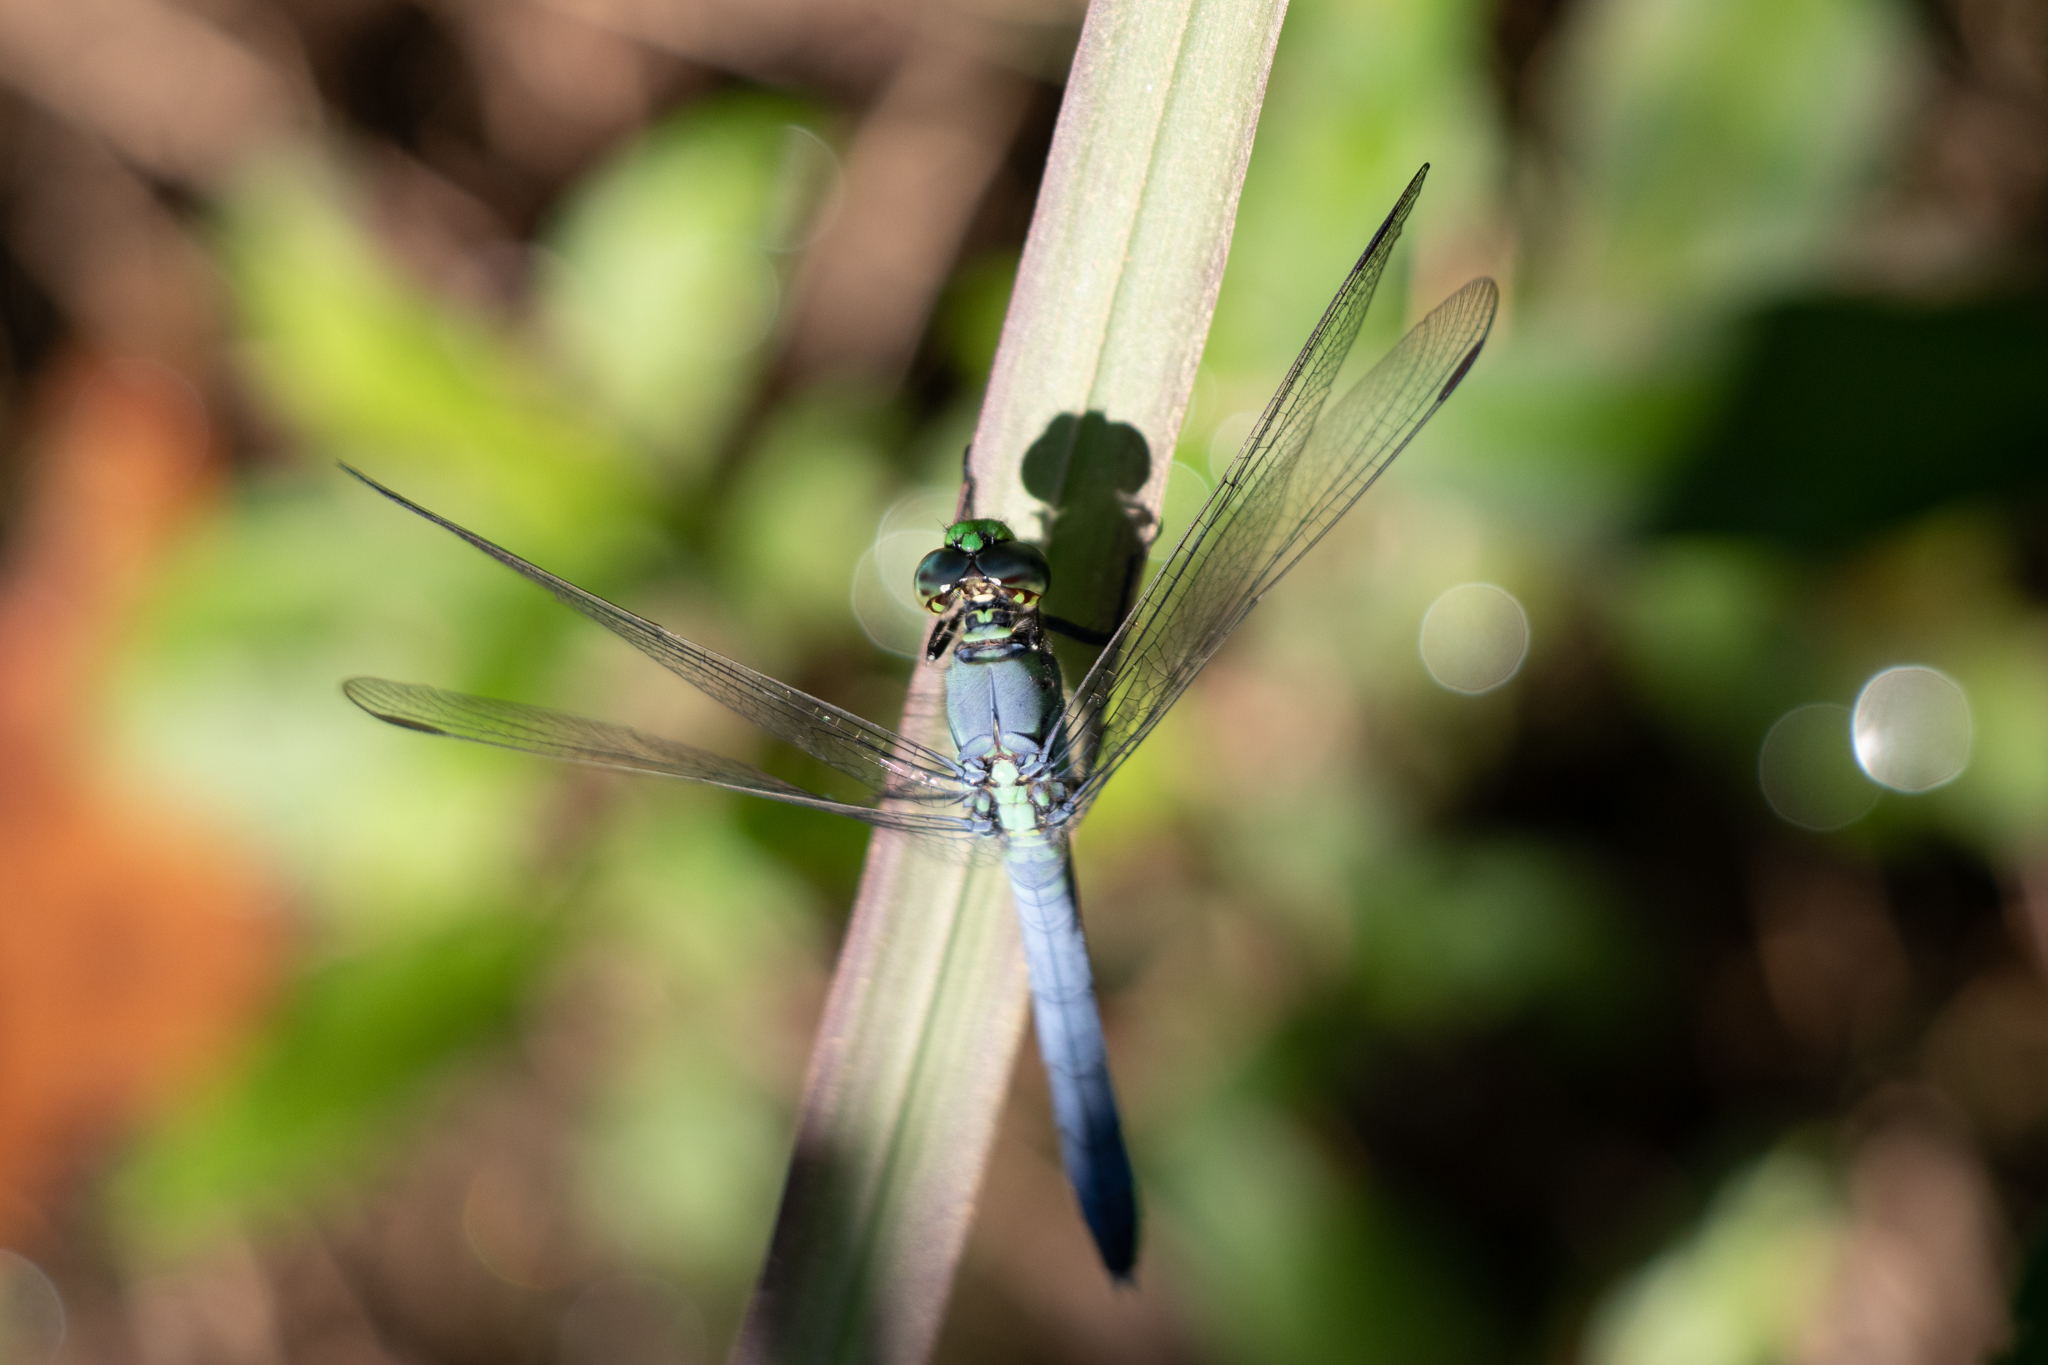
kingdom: Animalia
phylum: Arthropoda
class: Insecta
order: Odonata
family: Libellulidae
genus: Erythemis
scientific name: Erythemis simplicicollis
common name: Eastern pondhawk
